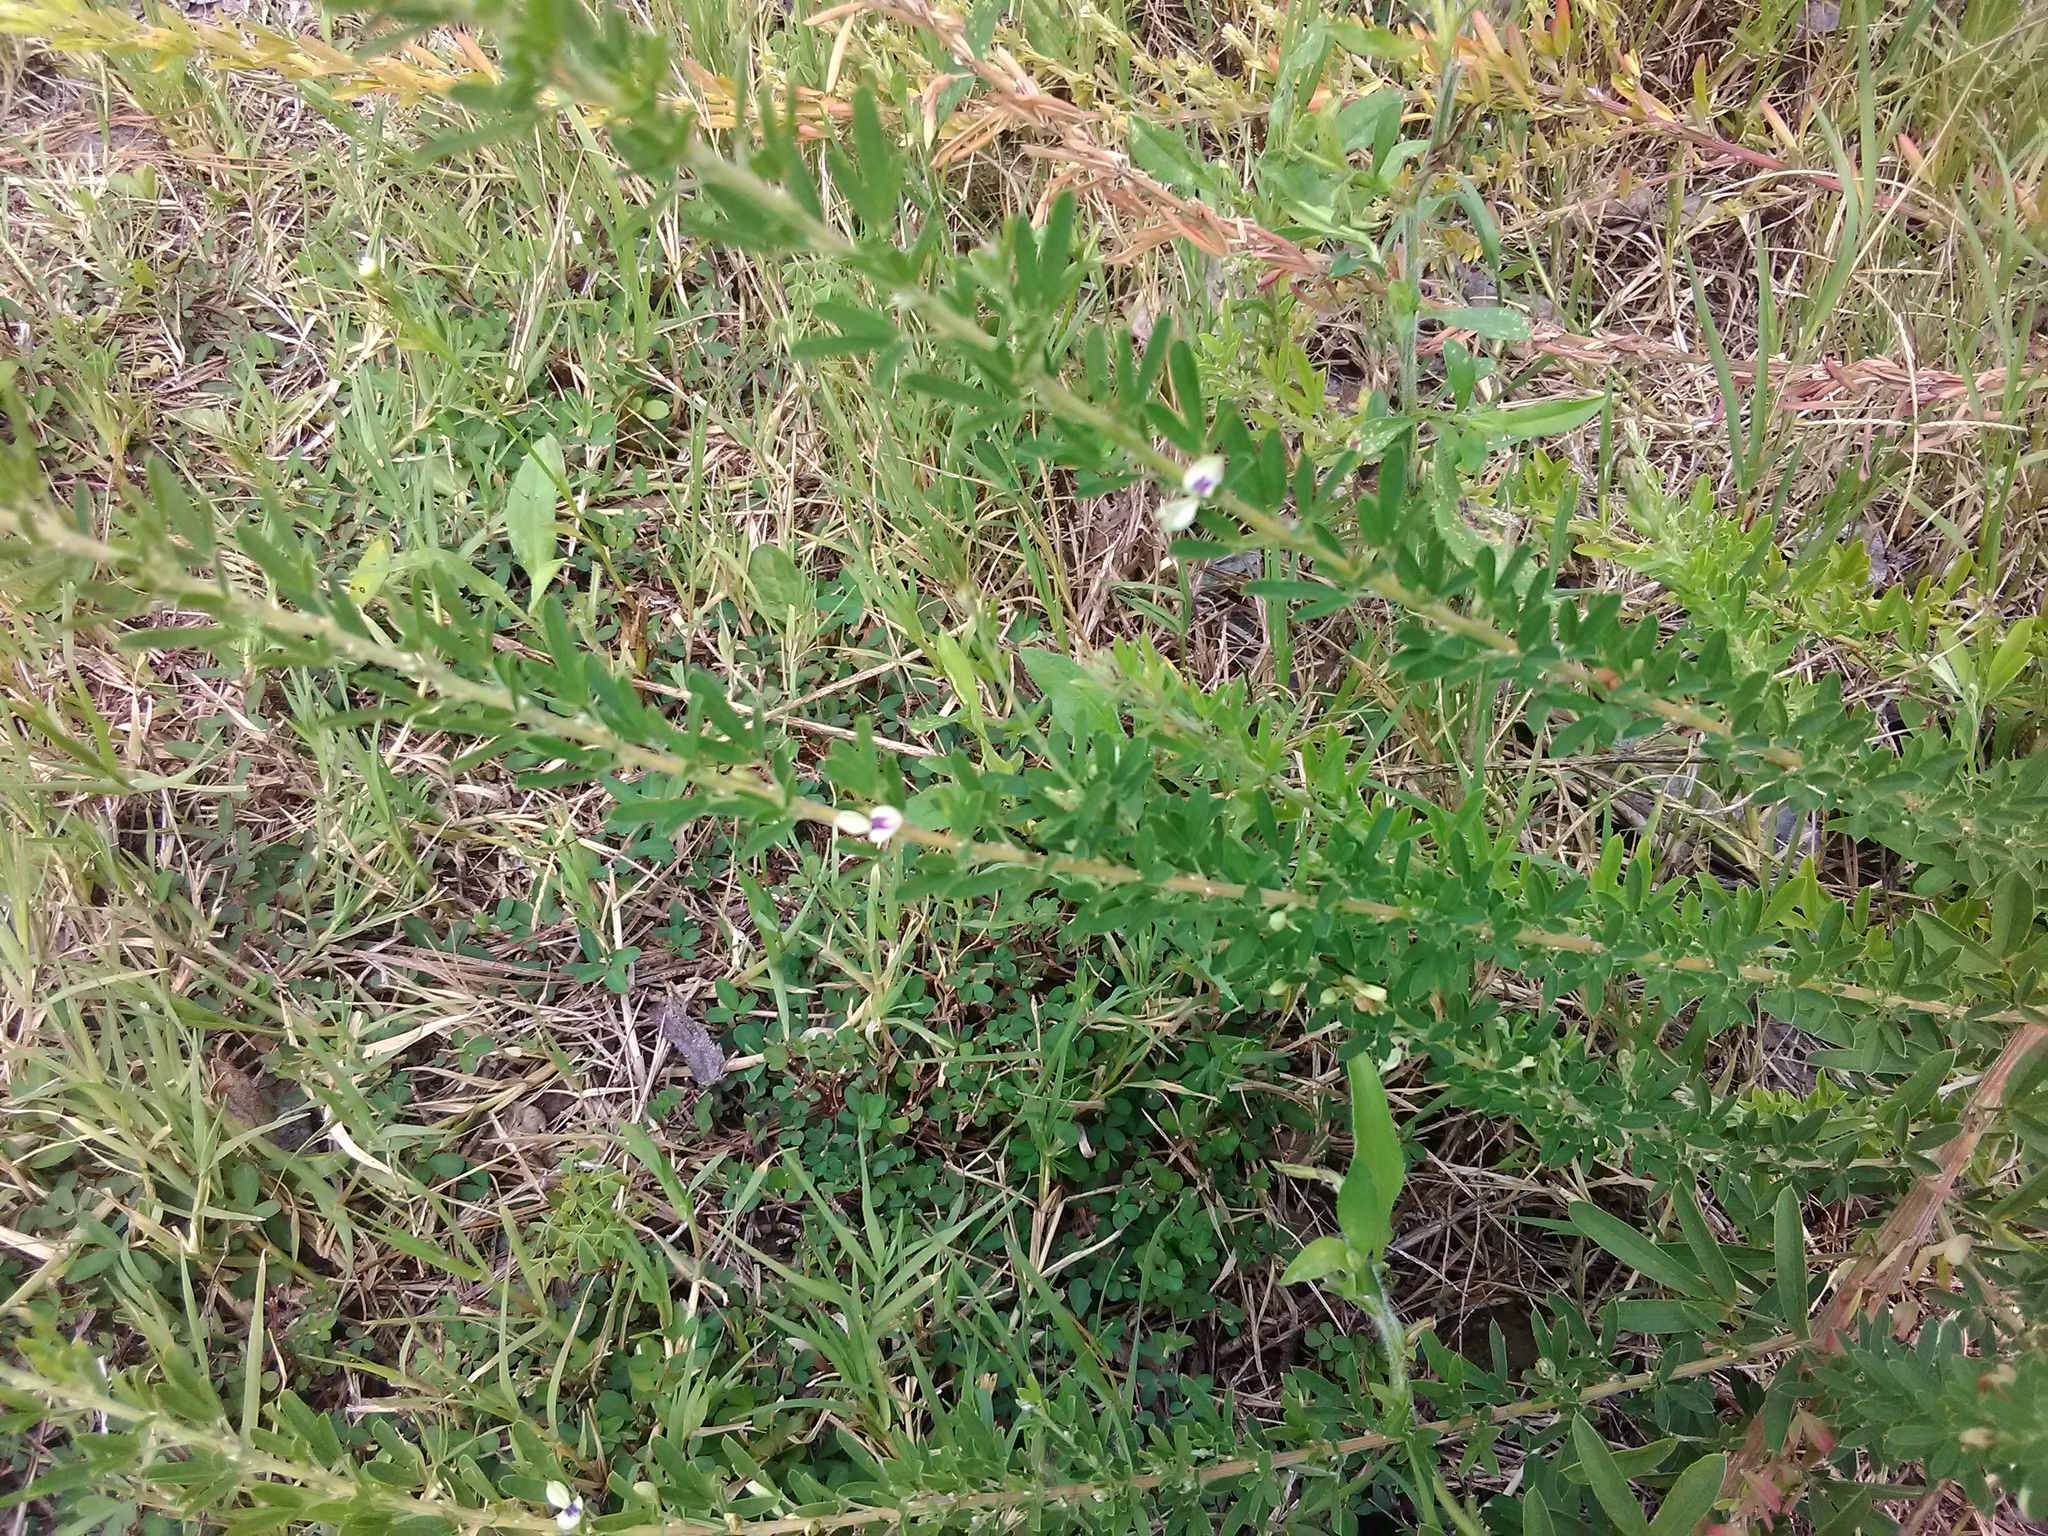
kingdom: Plantae
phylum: Tracheophyta
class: Magnoliopsida
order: Fabales
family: Fabaceae
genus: Lespedeza
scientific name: Lespedeza cuneata
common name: Chinese bush-clover
